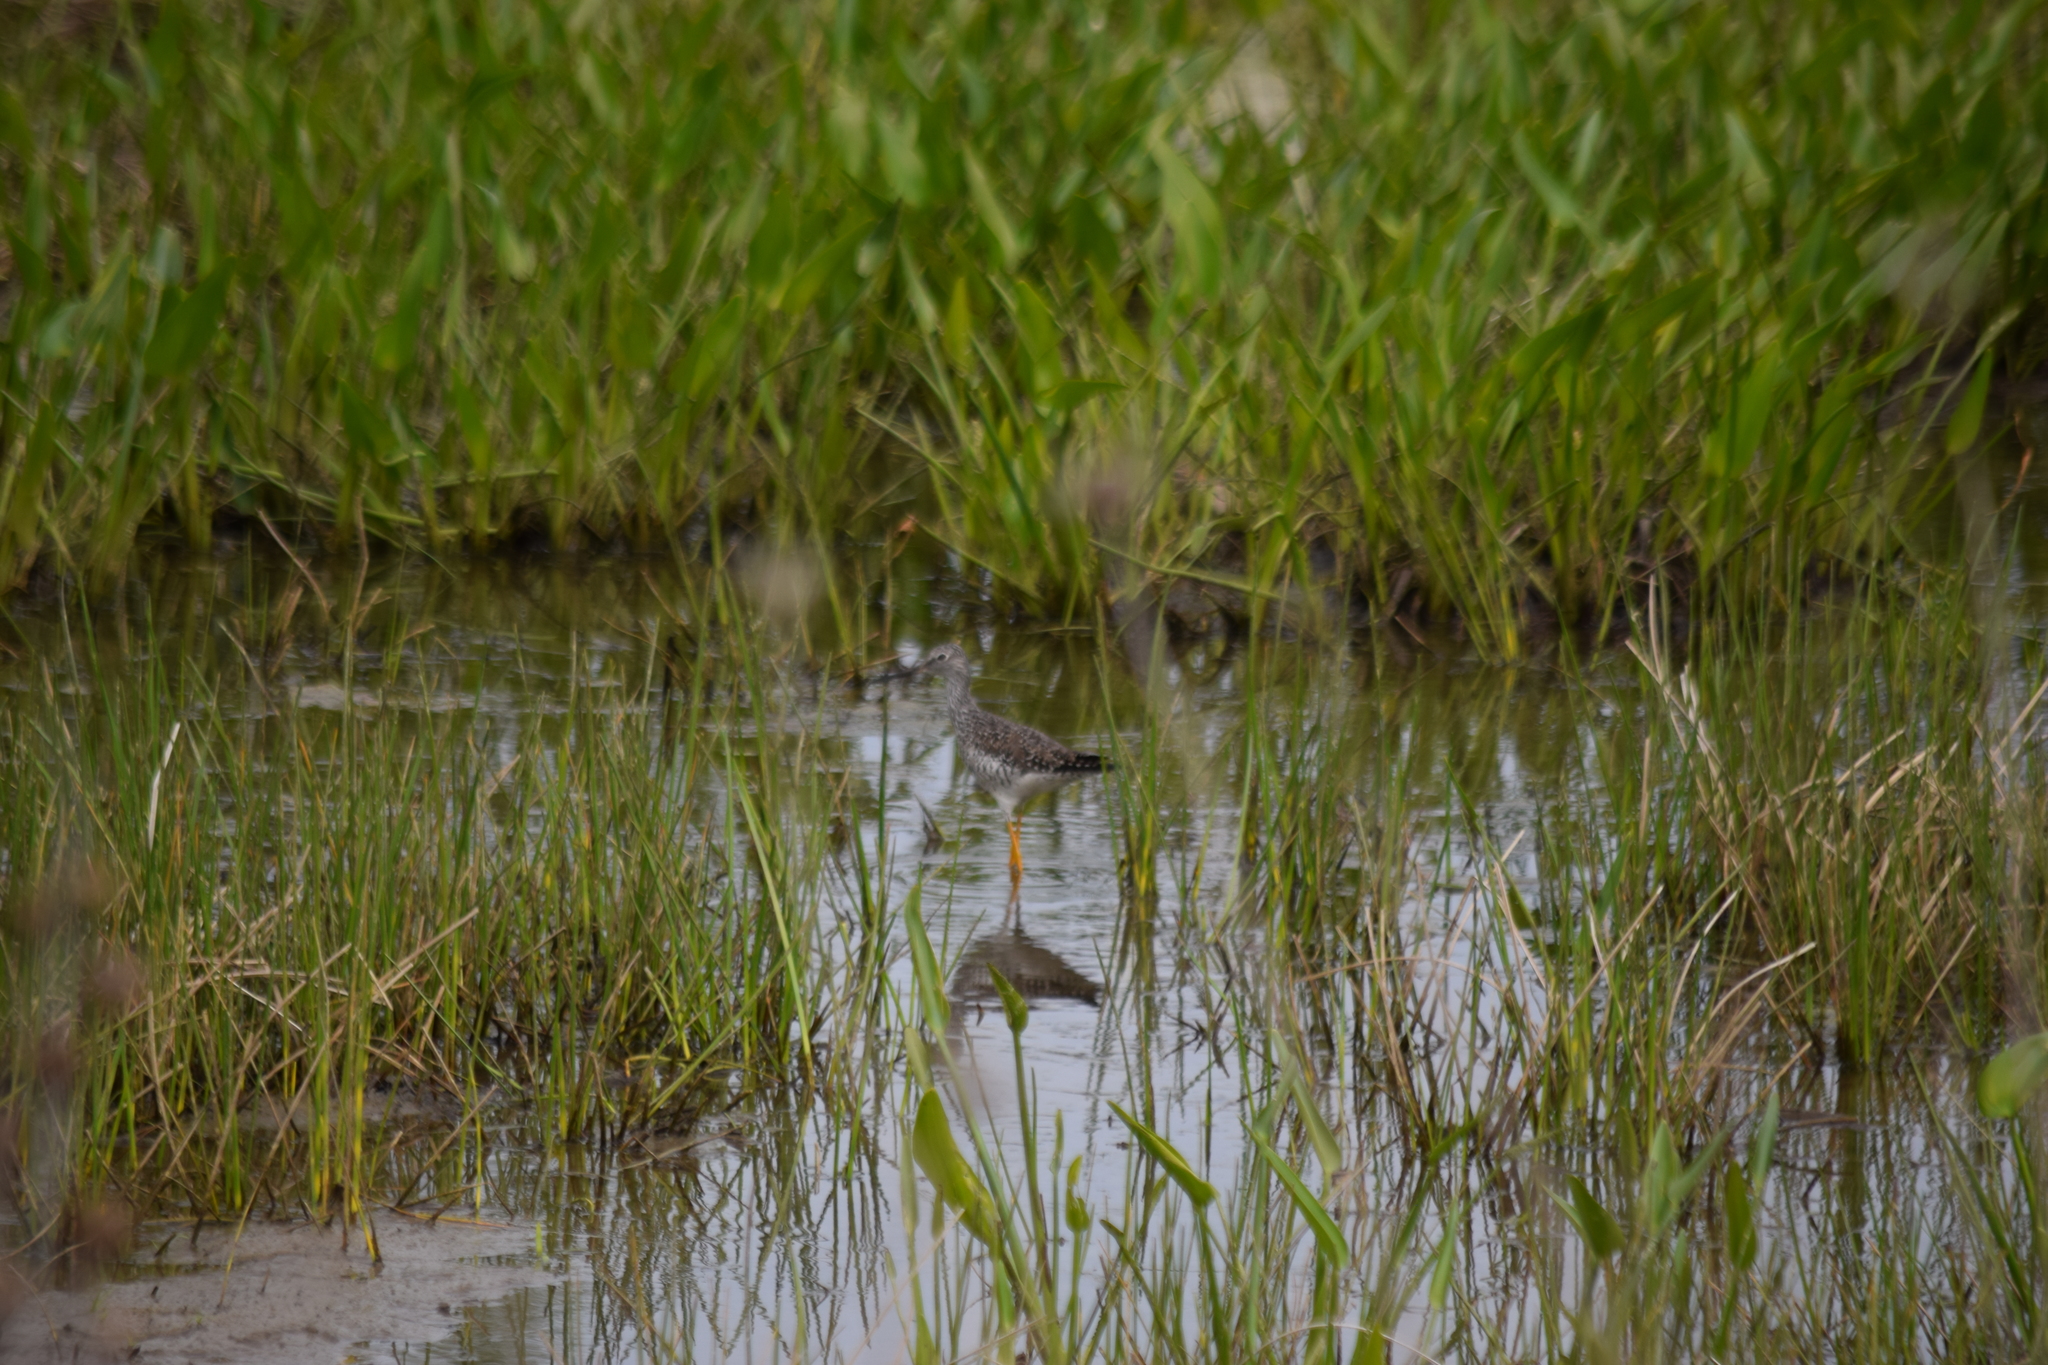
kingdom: Animalia
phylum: Chordata
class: Aves
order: Charadriiformes
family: Scolopacidae
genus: Tringa
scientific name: Tringa melanoleuca
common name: Greater yellowlegs
